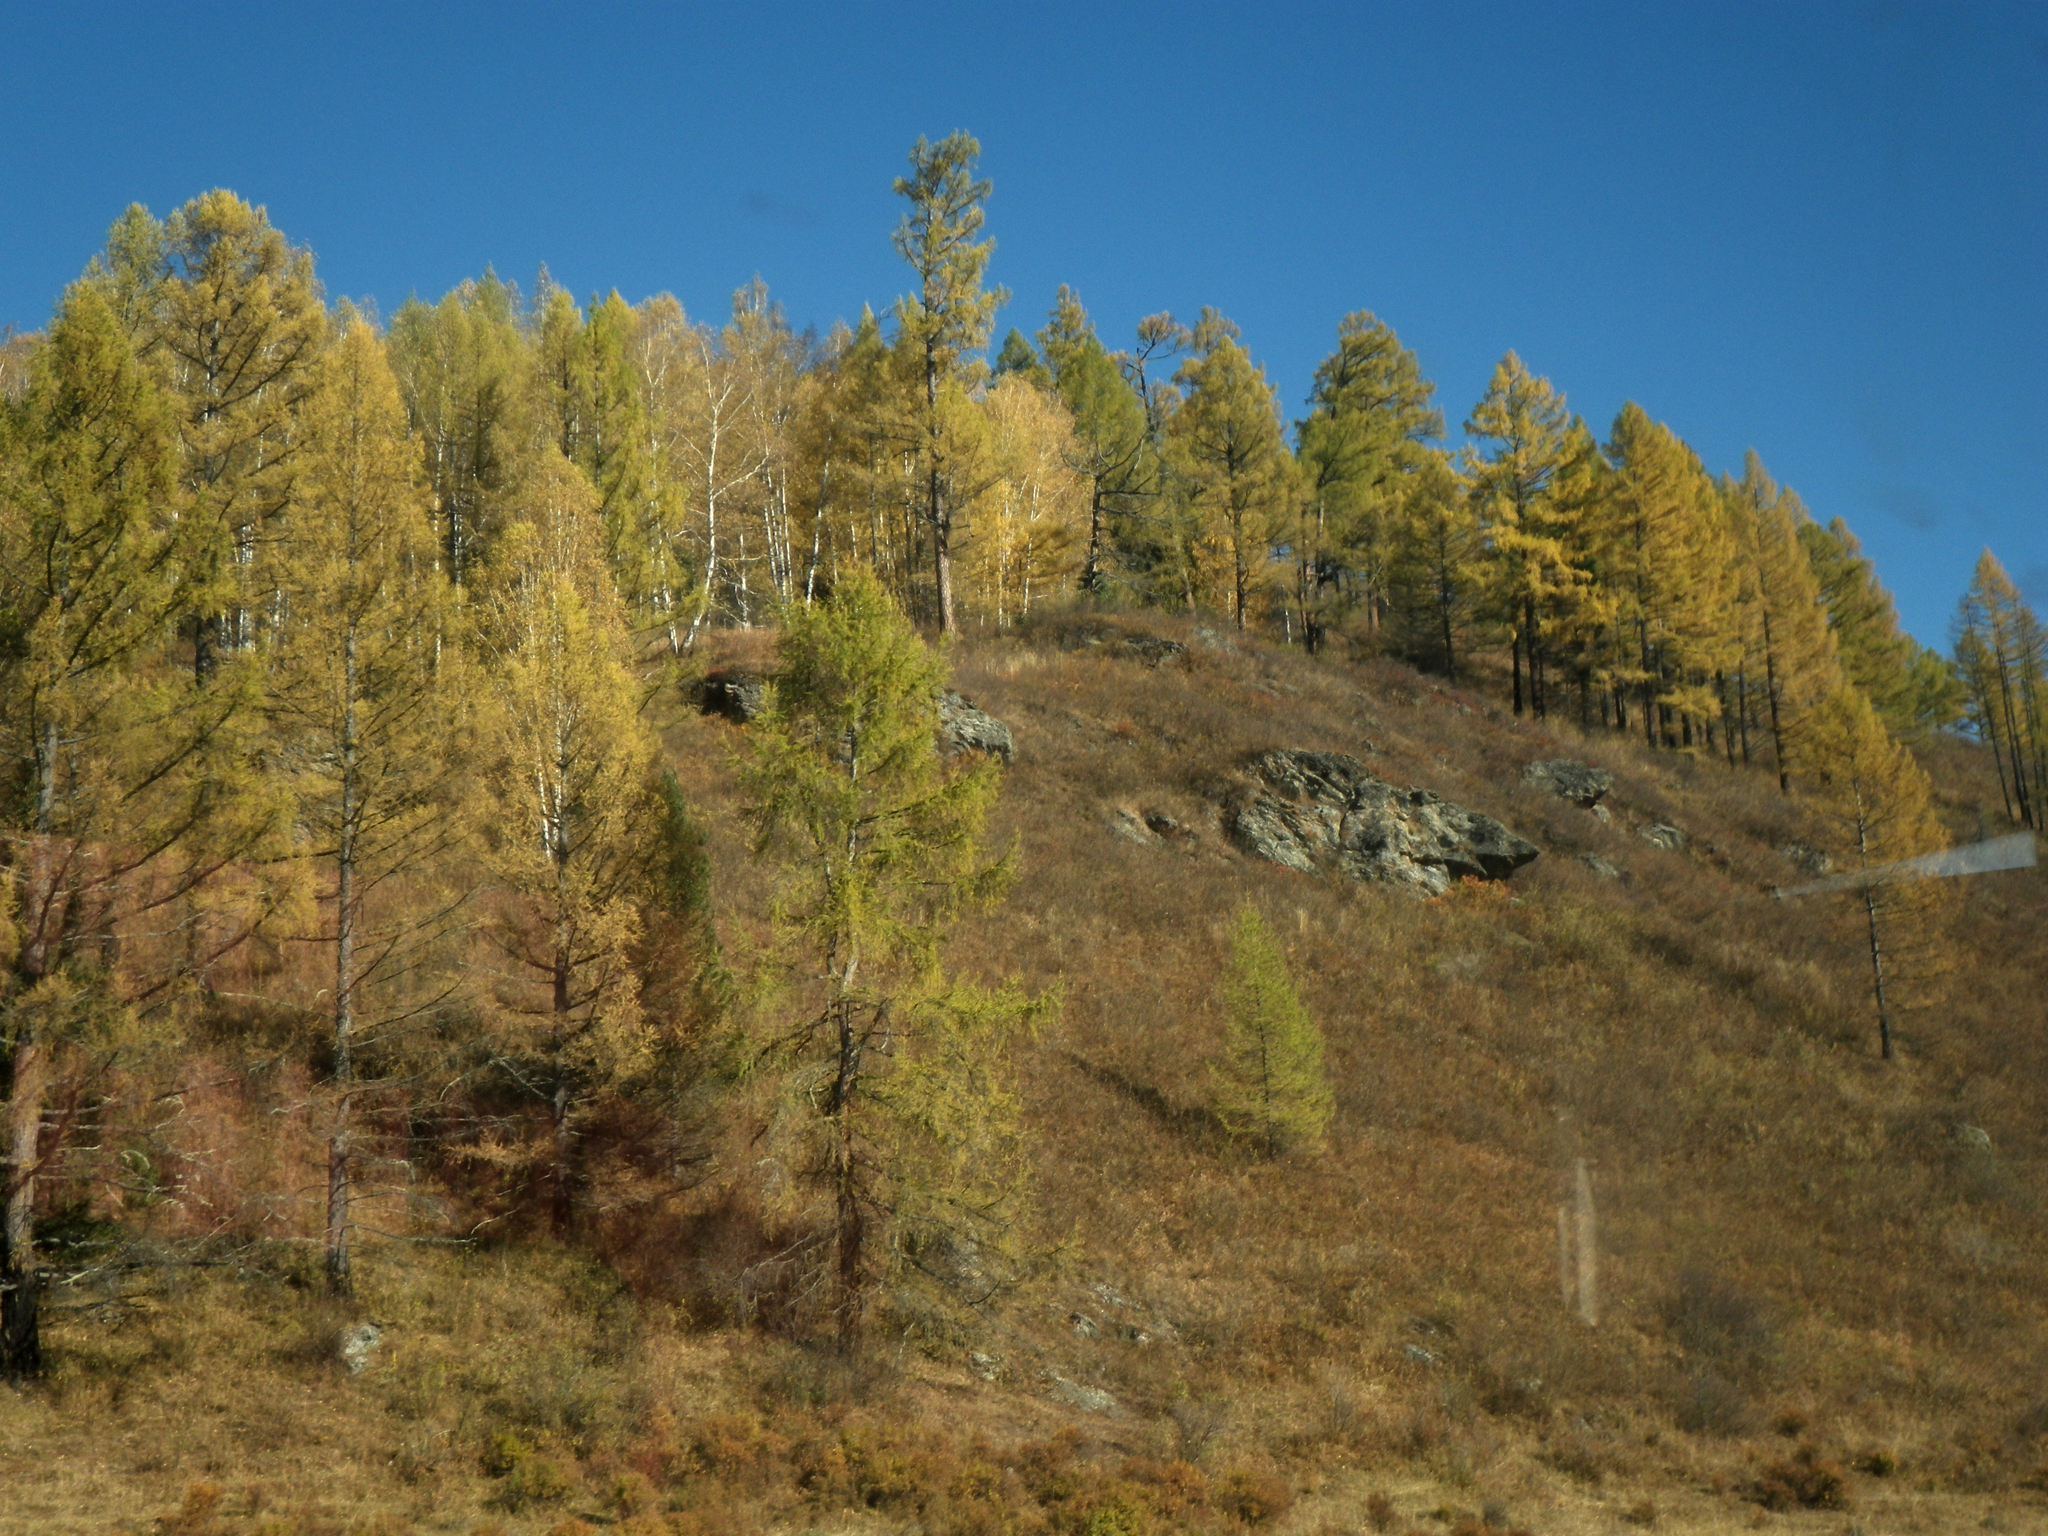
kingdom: Plantae
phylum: Tracheophyta
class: Pinopsida
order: Pinales
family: Pinaceae
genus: Larix
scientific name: Larix sibirica
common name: Siberian larch
